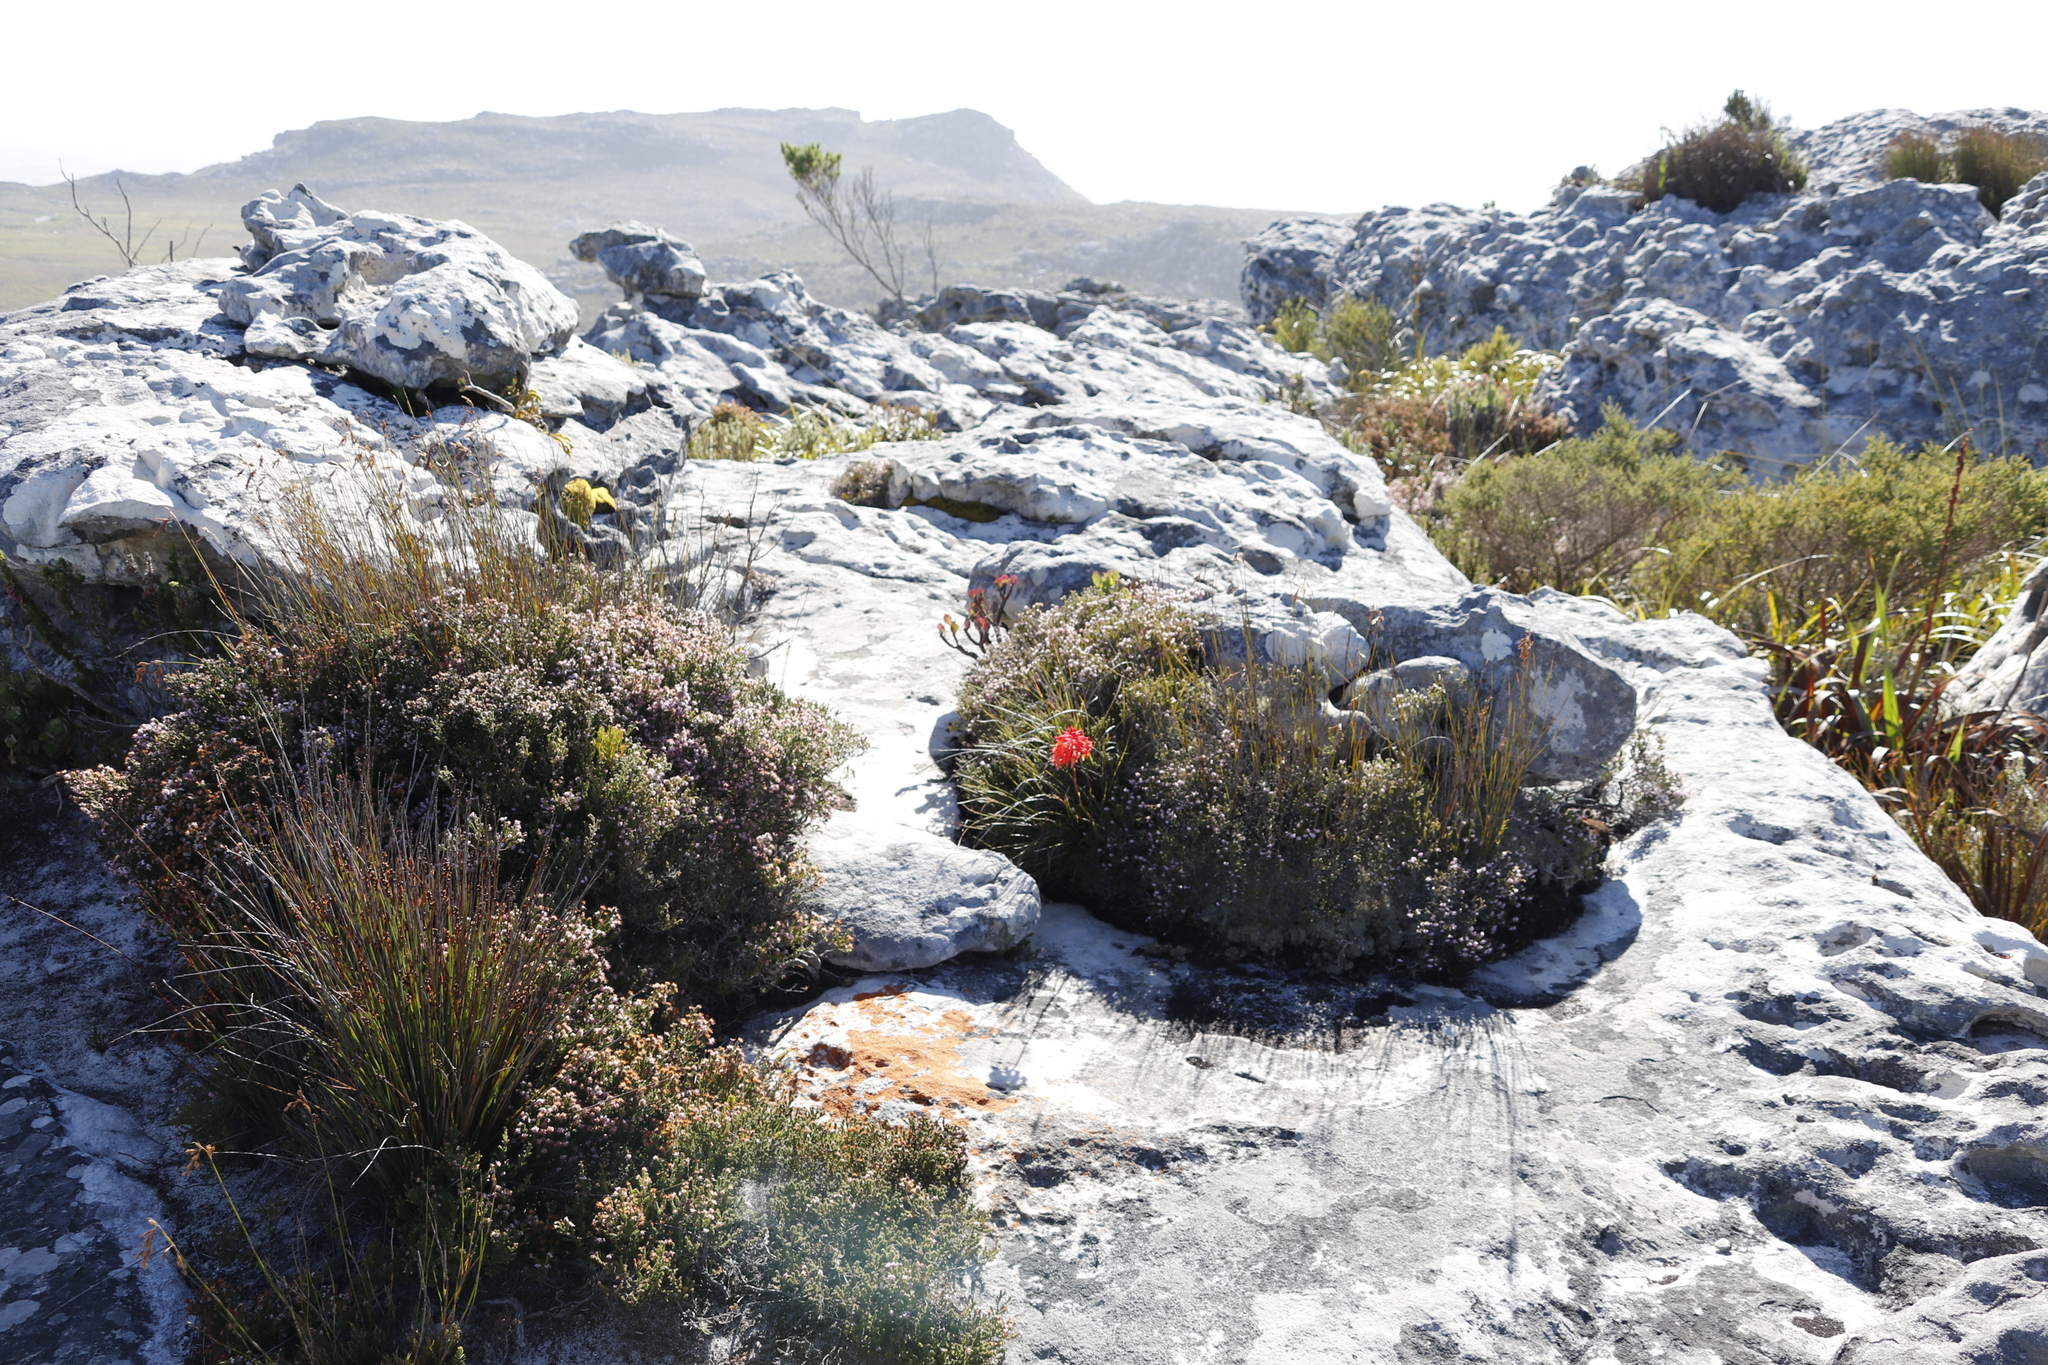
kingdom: Plantae
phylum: Tracheophyta
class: Liliopsida
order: Asparagales
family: Orchidaceae
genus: Disa
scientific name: Disa ferruginea
